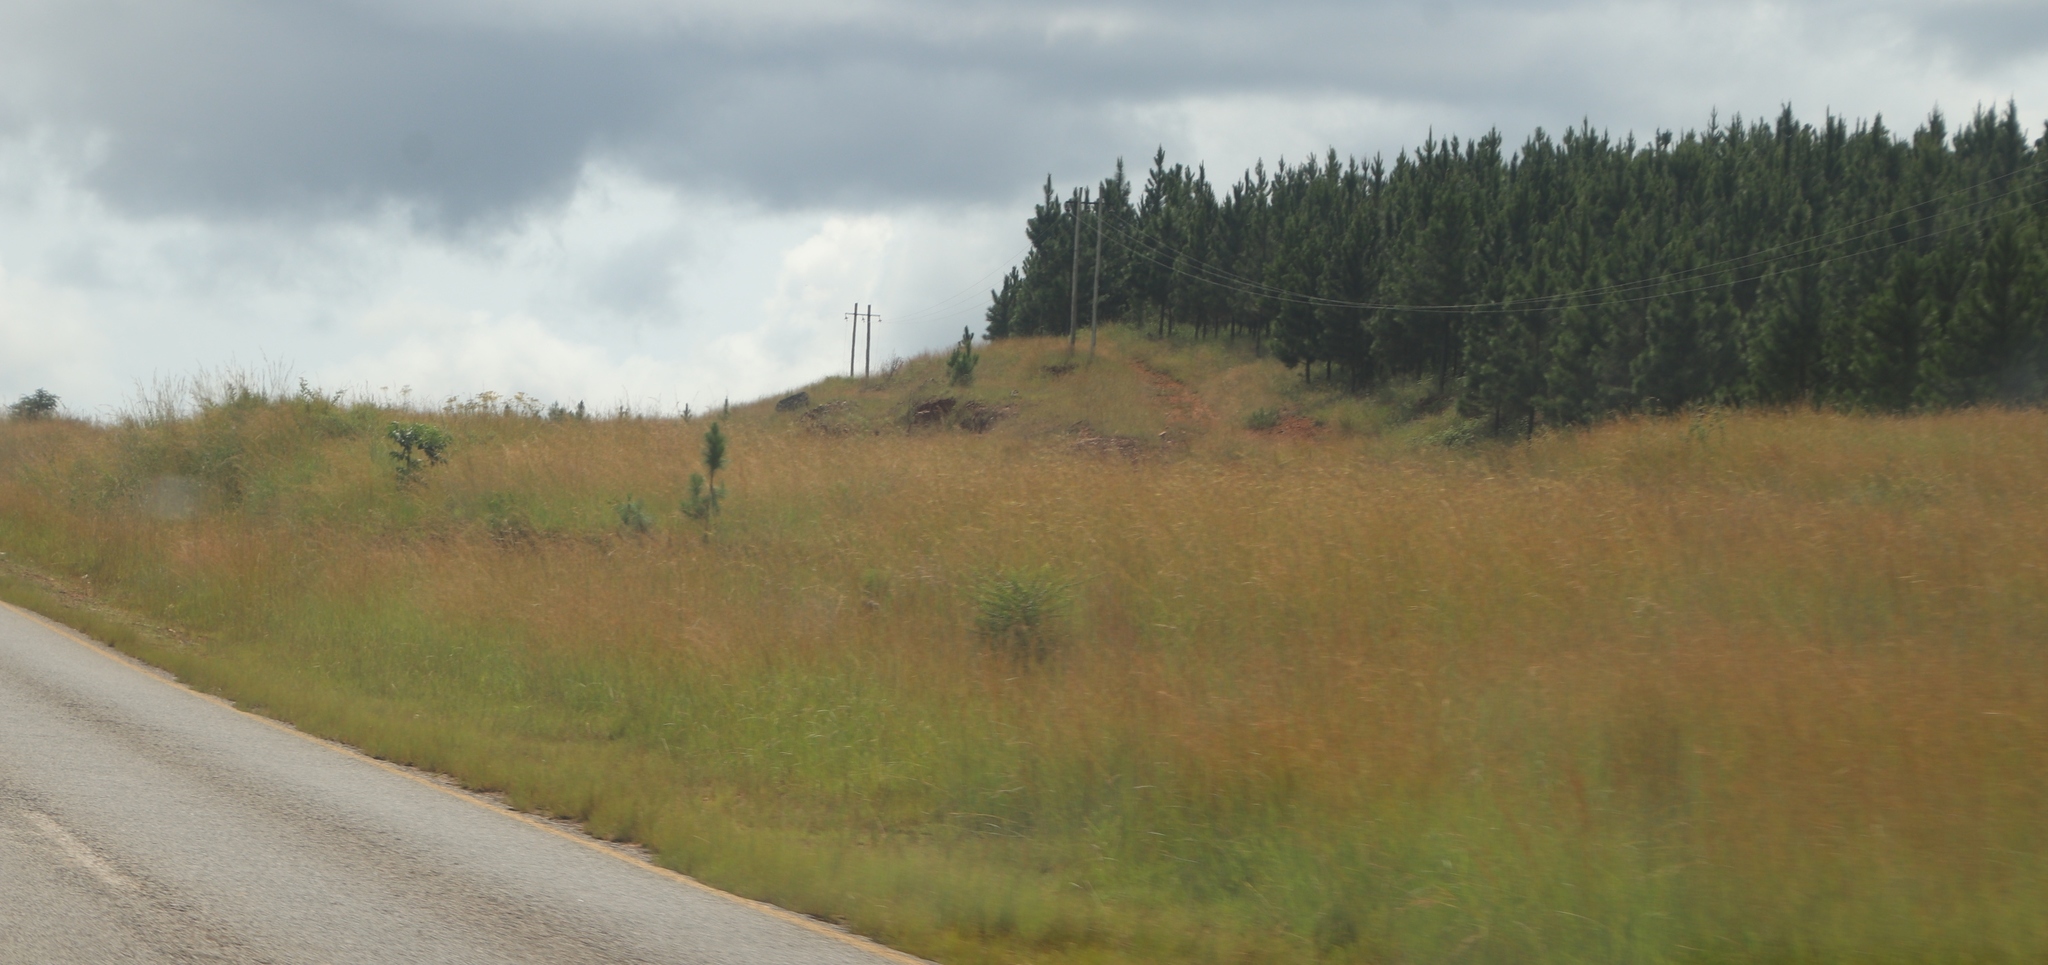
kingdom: Plantae
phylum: Tracheophyta
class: Pinopsida
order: Pinales
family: Pinaceae
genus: Pinus
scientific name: Pinus patula
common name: Mexican weeping pine
